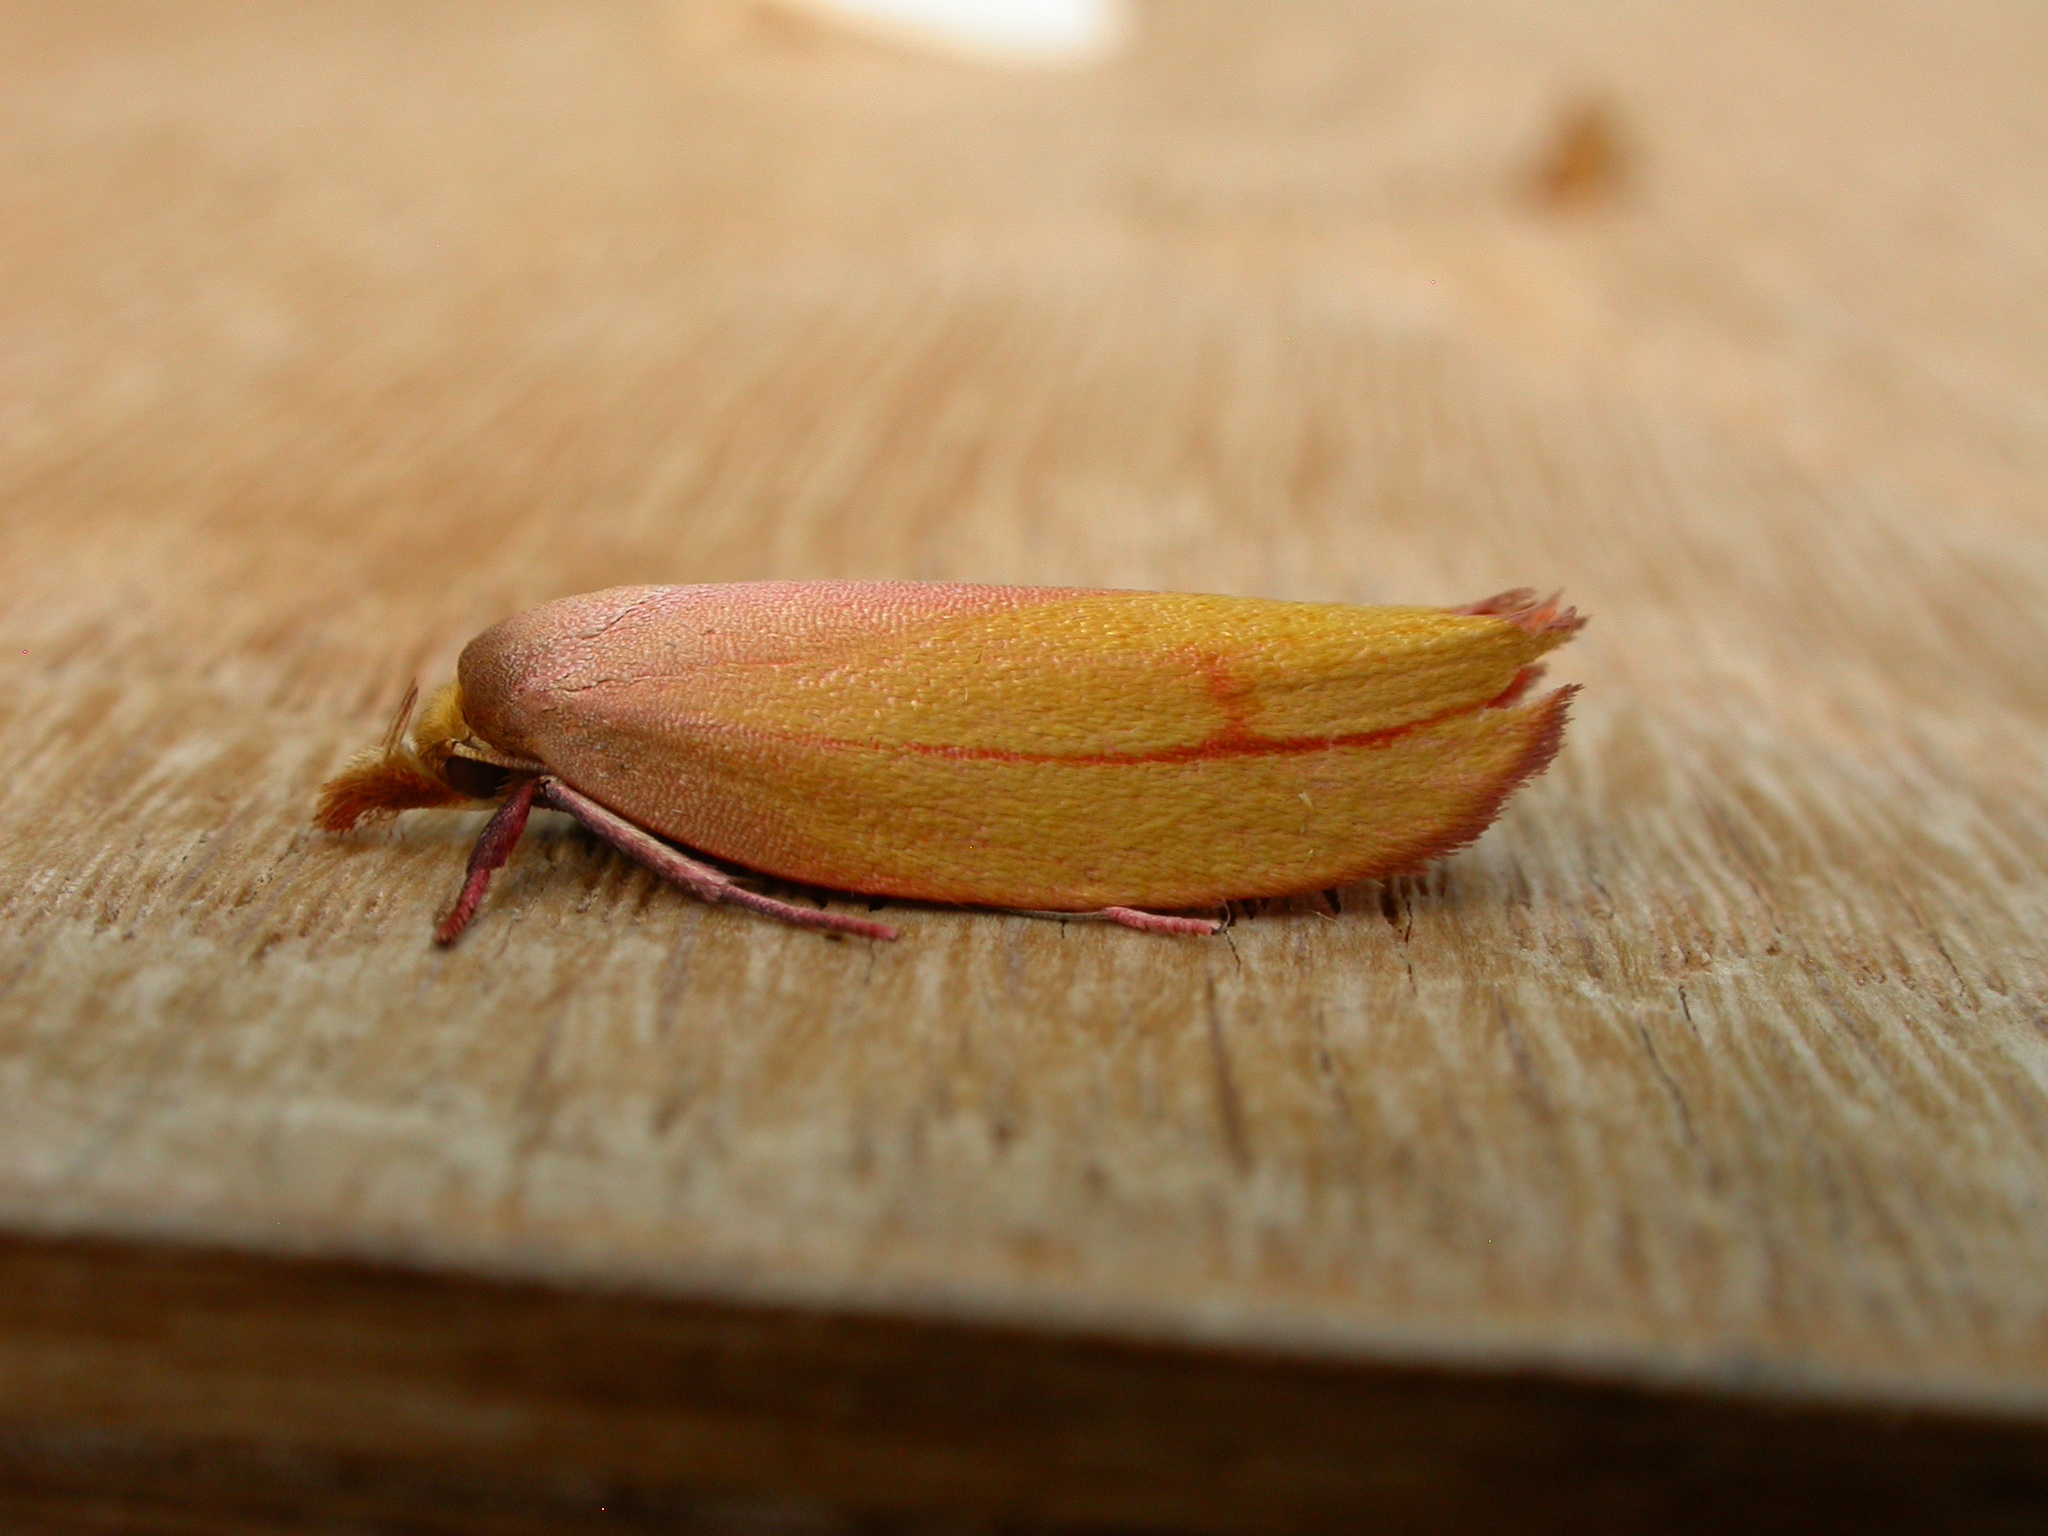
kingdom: Animalia
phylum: Arthropoda
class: Insecta
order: Lepidoptera
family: Oecophoridae
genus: Wingia
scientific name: Wingia aurata
